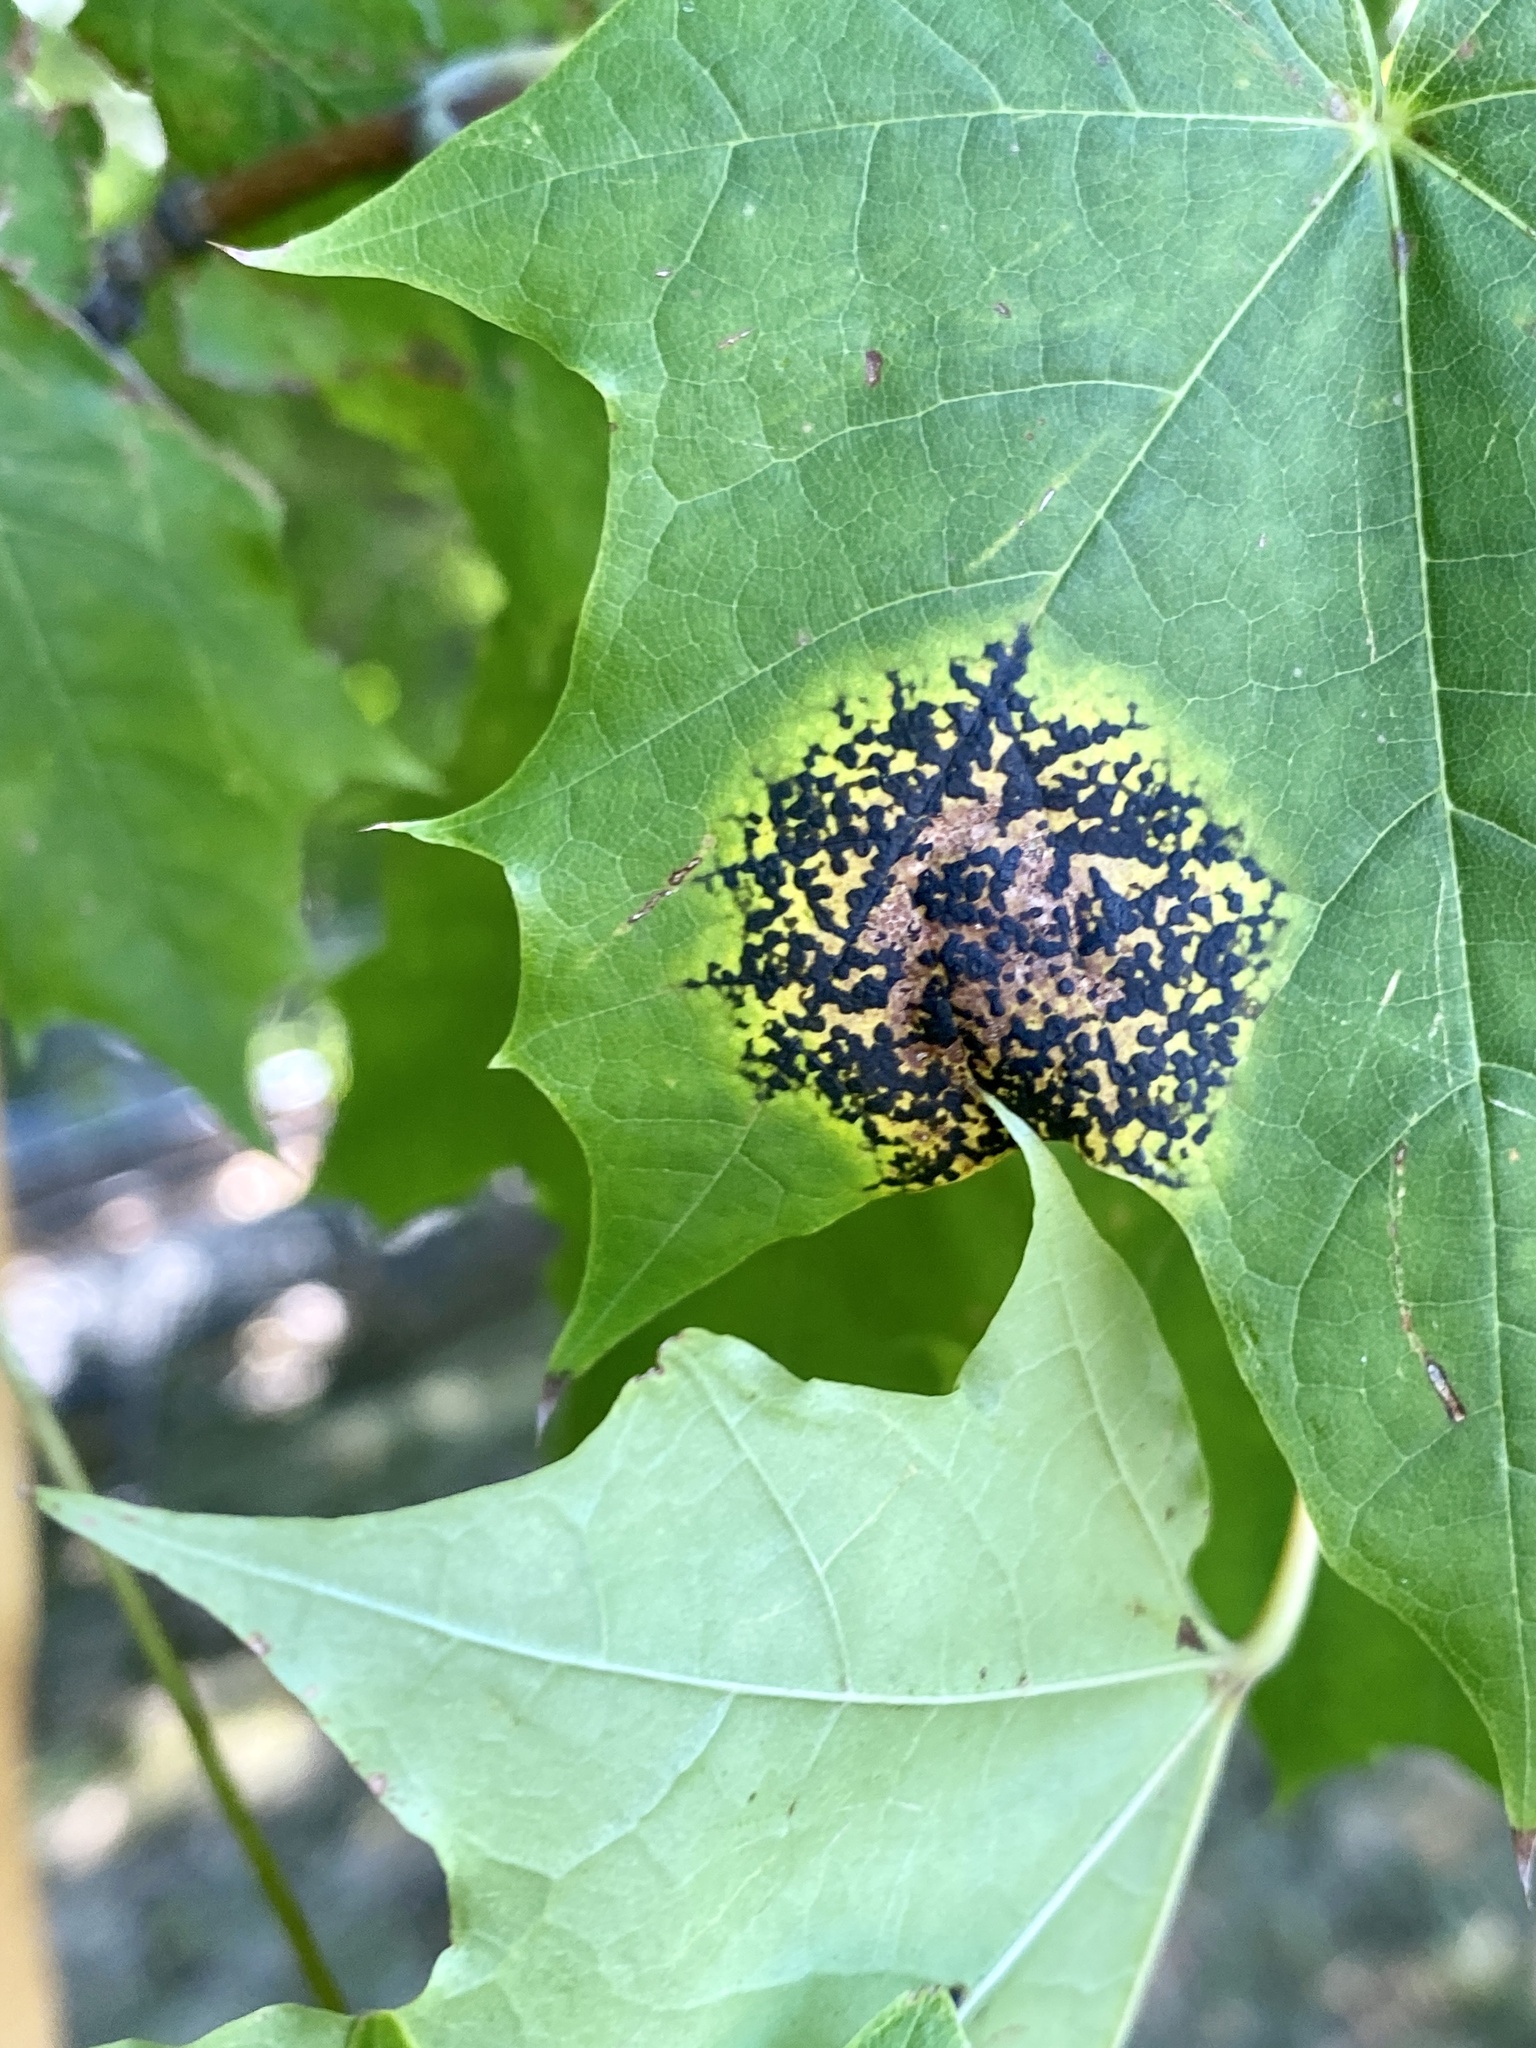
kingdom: Fungi
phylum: Ascomycota
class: Leotiomycetes
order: Rhytismatales
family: Rhytismataceae
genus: Rhytisma
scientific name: Rhytisma acerinum
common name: European tar spot
